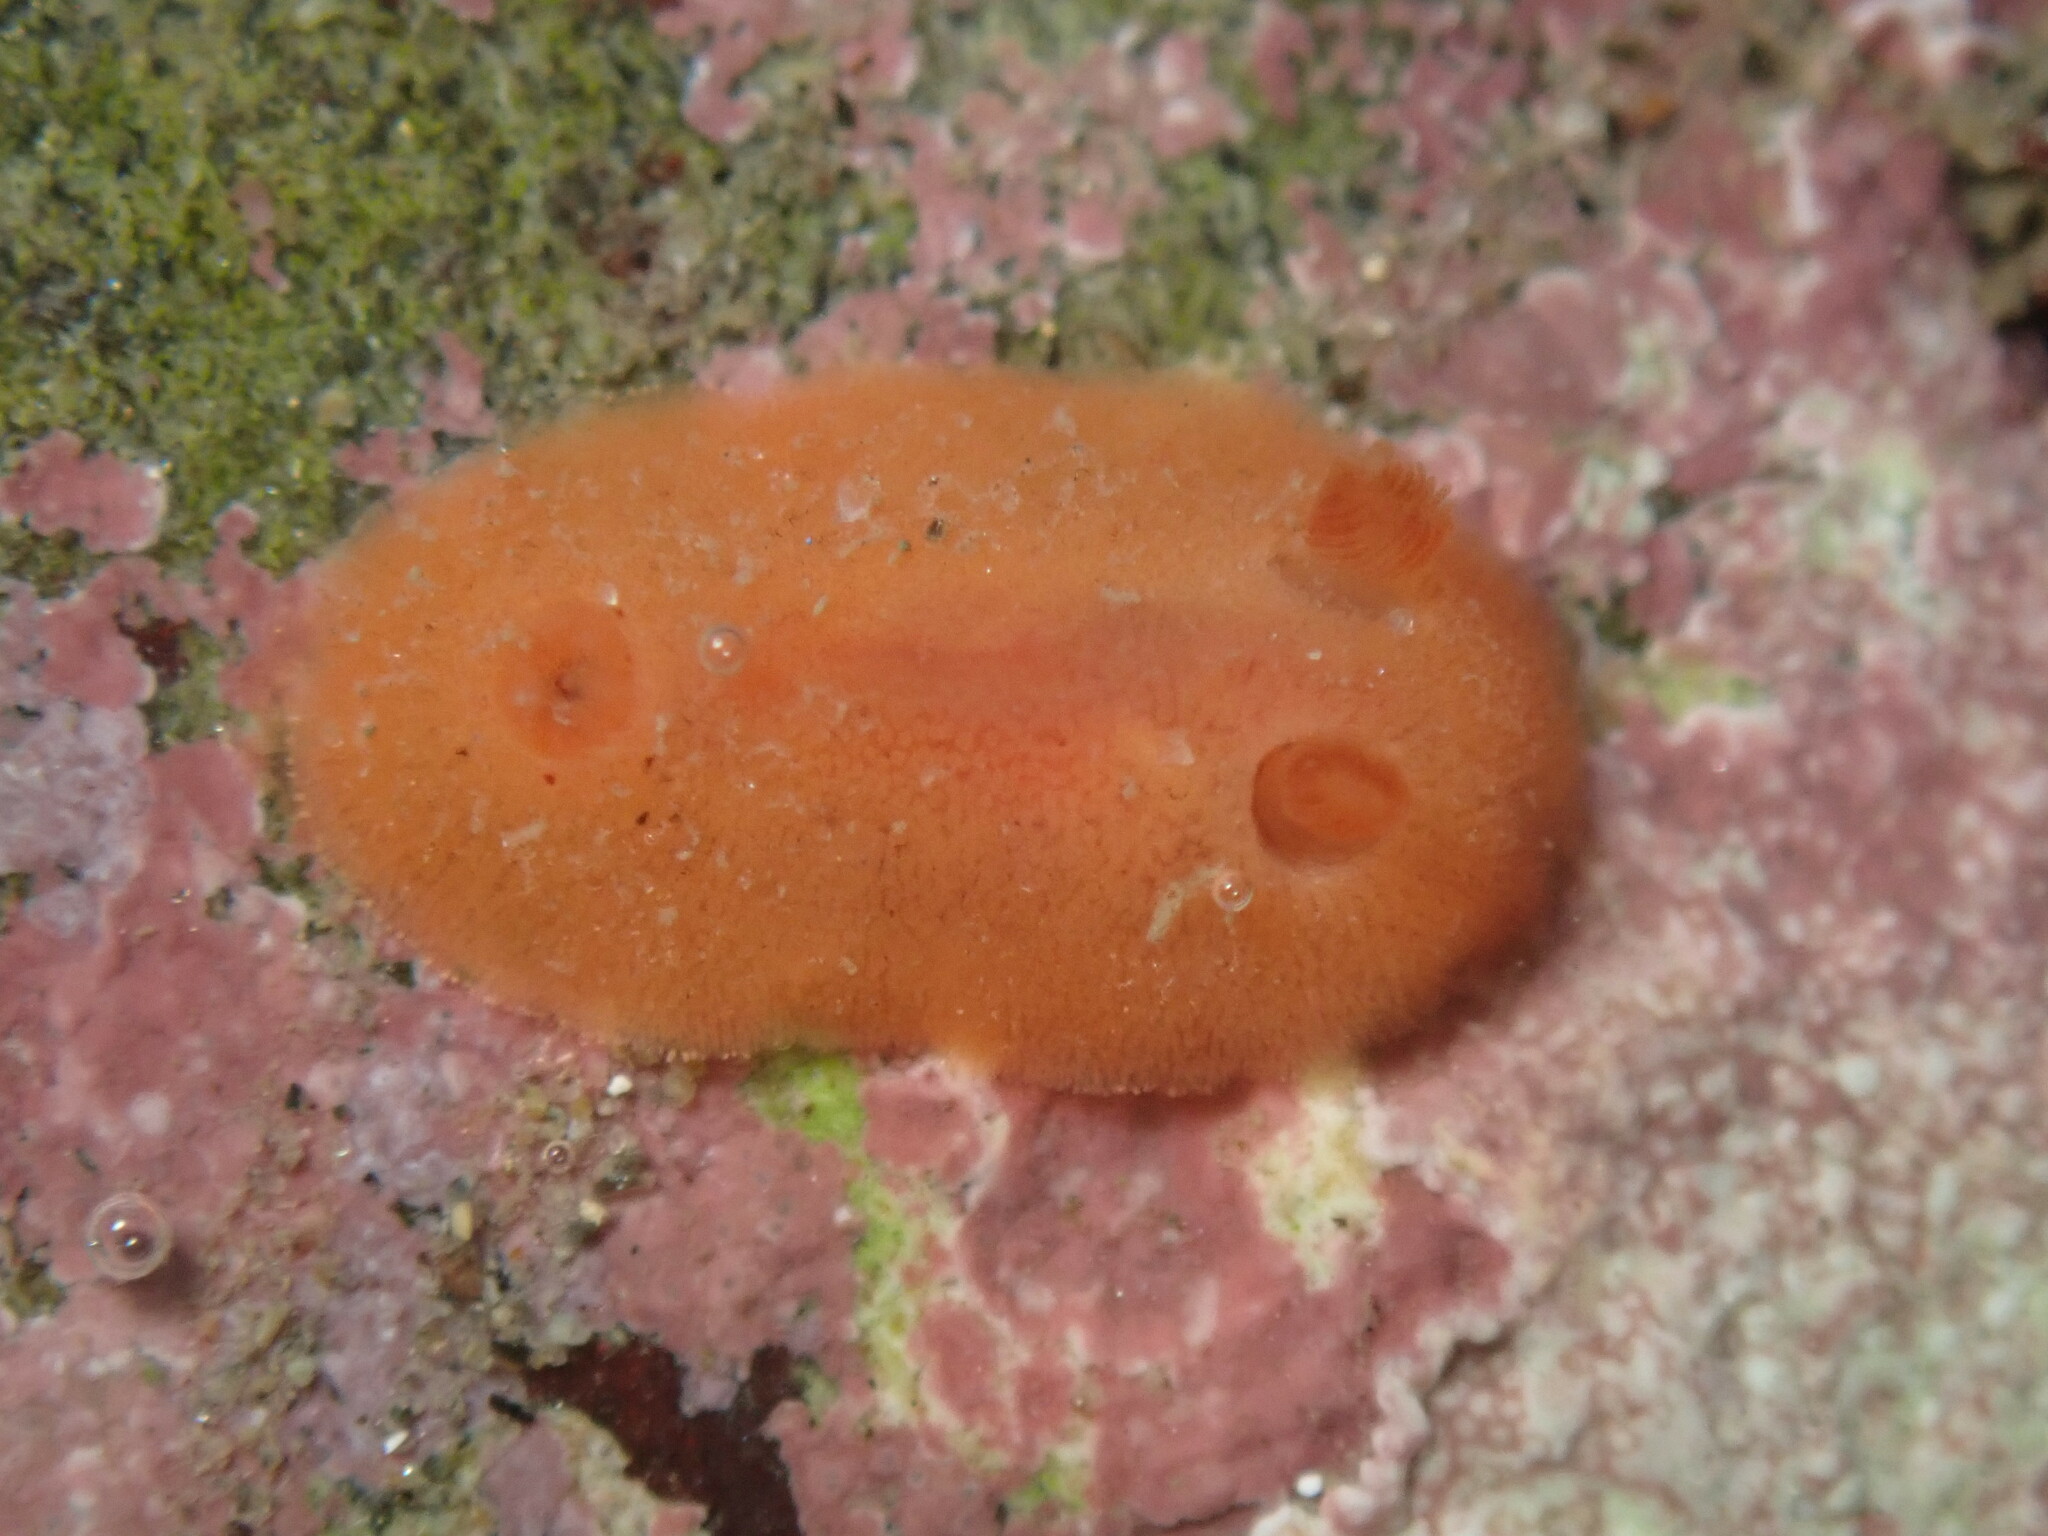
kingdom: Animalia
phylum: Mollusca
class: Gastropoda
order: Nudibranchia
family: Discodorididae
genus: Rostanga
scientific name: Rostanga pulchra
